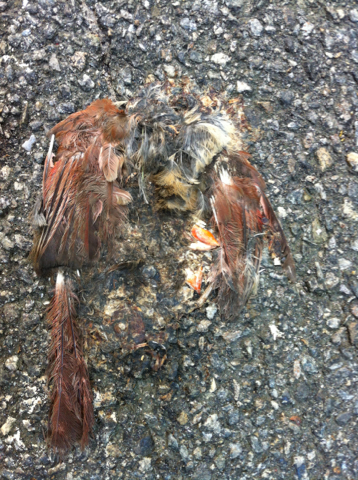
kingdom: Animalia
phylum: Chordata
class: Aves
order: Passeriformes
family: Cardinalidae
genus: Cardinalis
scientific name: Cardinalis cardinalis
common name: Northern cardinal
